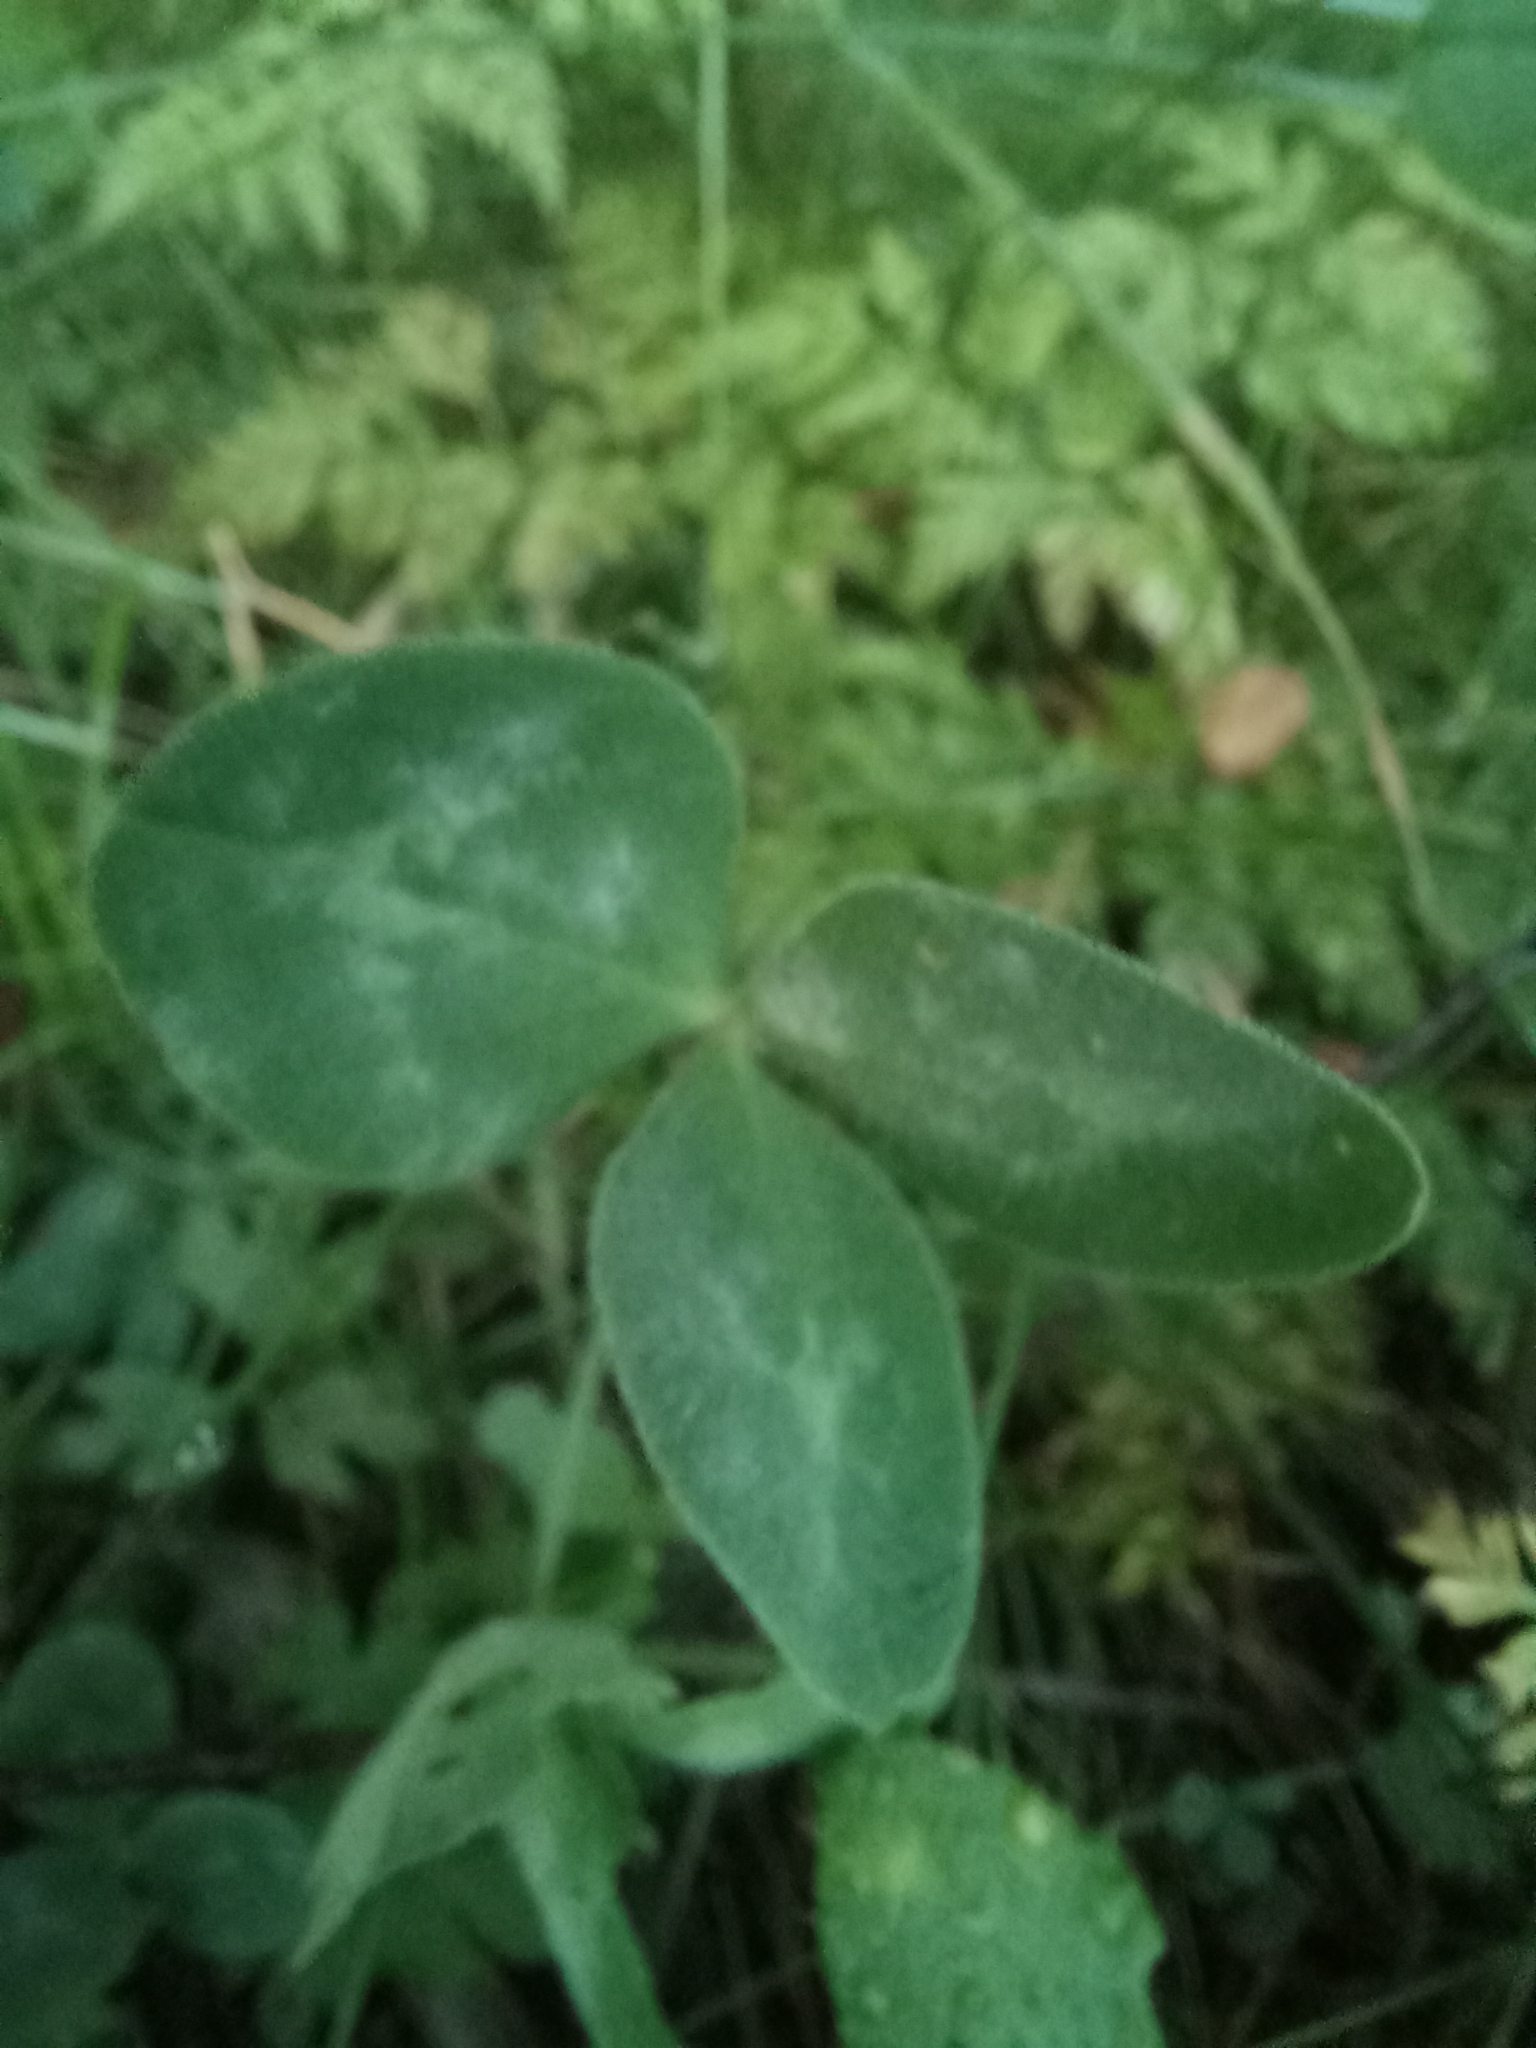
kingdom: Plantae
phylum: Tracheophyta
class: Magnoliopsida
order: Fabales
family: Fabaceae
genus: Trifolium
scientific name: Trifolium pratense
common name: Red clover
